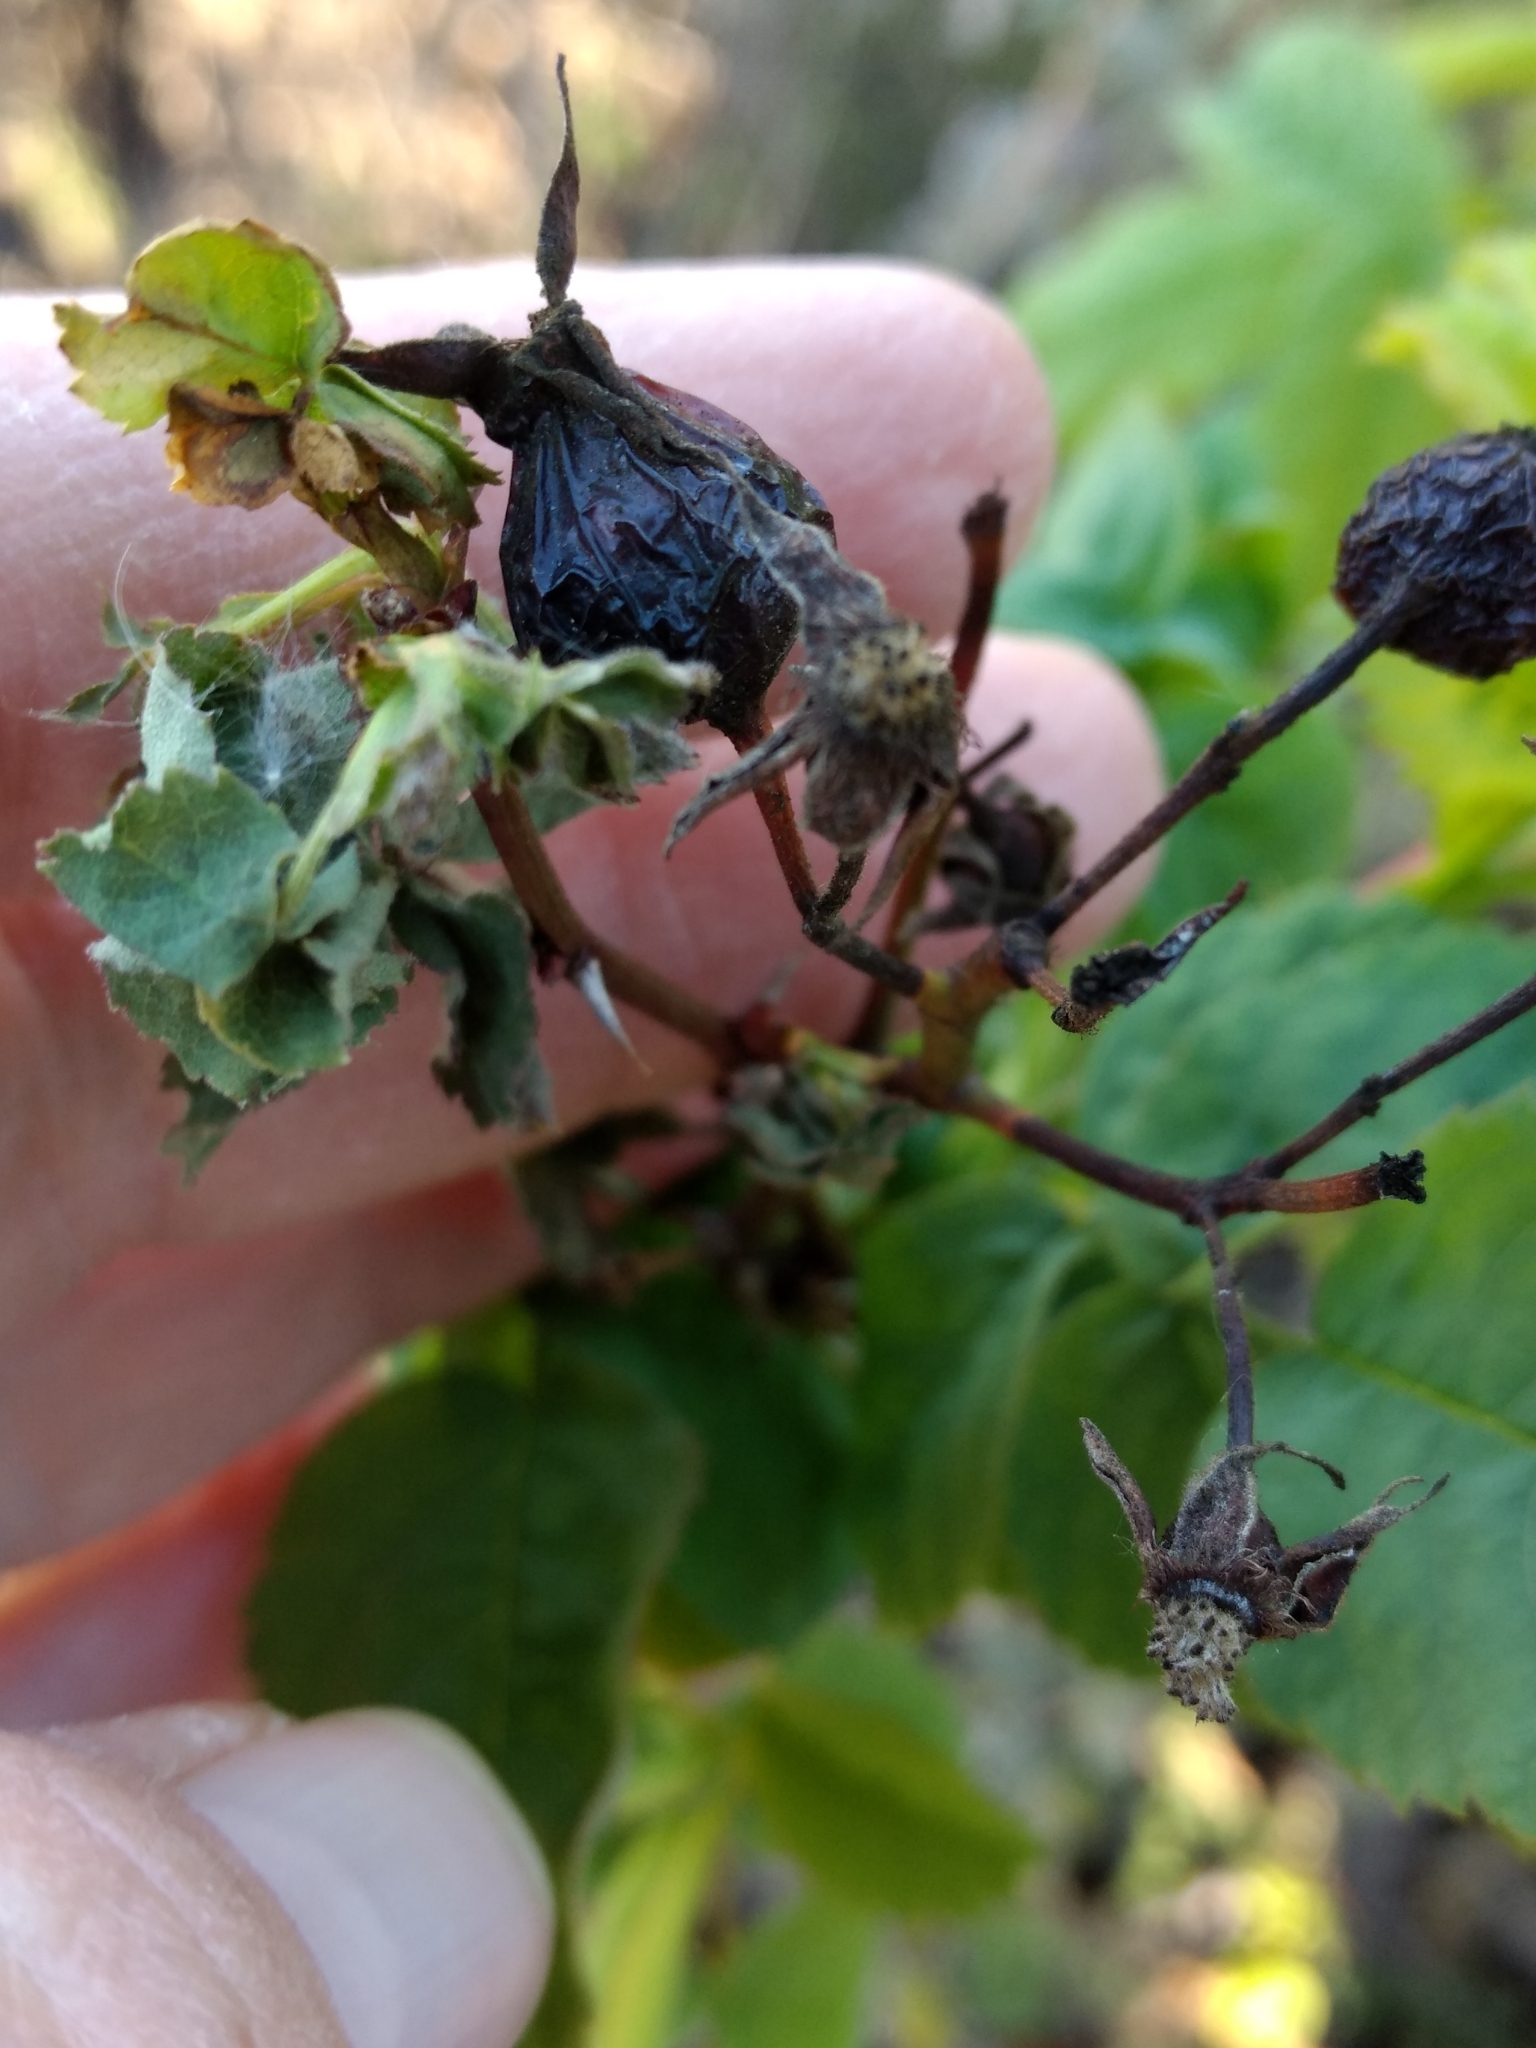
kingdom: Plantae
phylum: Tracheophyta
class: Magnoliopsida
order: Rosales
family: Rosaceae
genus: Rosa
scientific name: Rosa californica
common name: California rose
